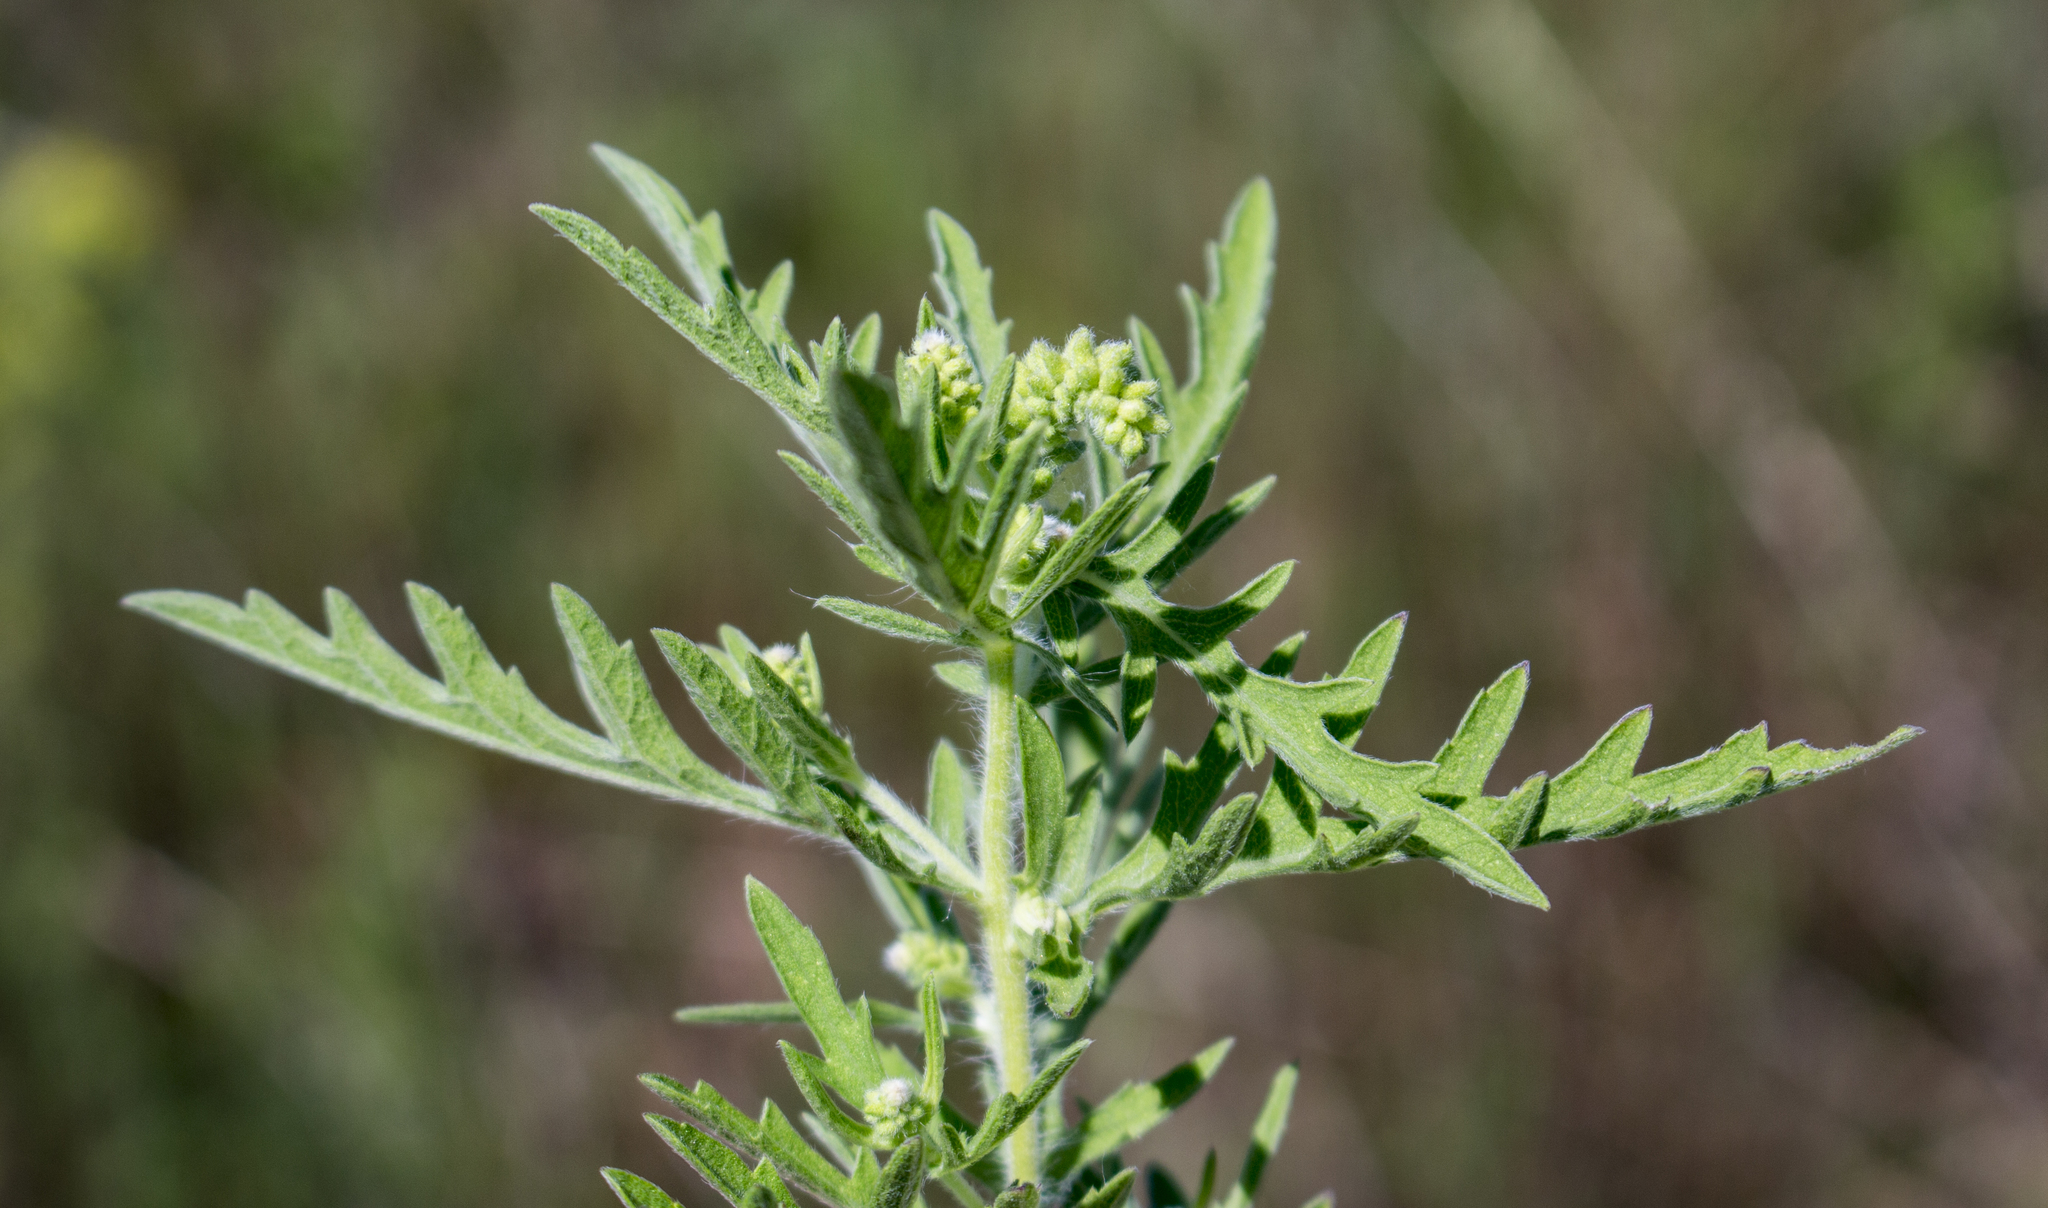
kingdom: Plantae
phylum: Tracheophyta
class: Magnoliopsida
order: Asterales
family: Asteraceae
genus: Ambrosia
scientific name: Ambrosia psilostachya
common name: Perennial ragweed
